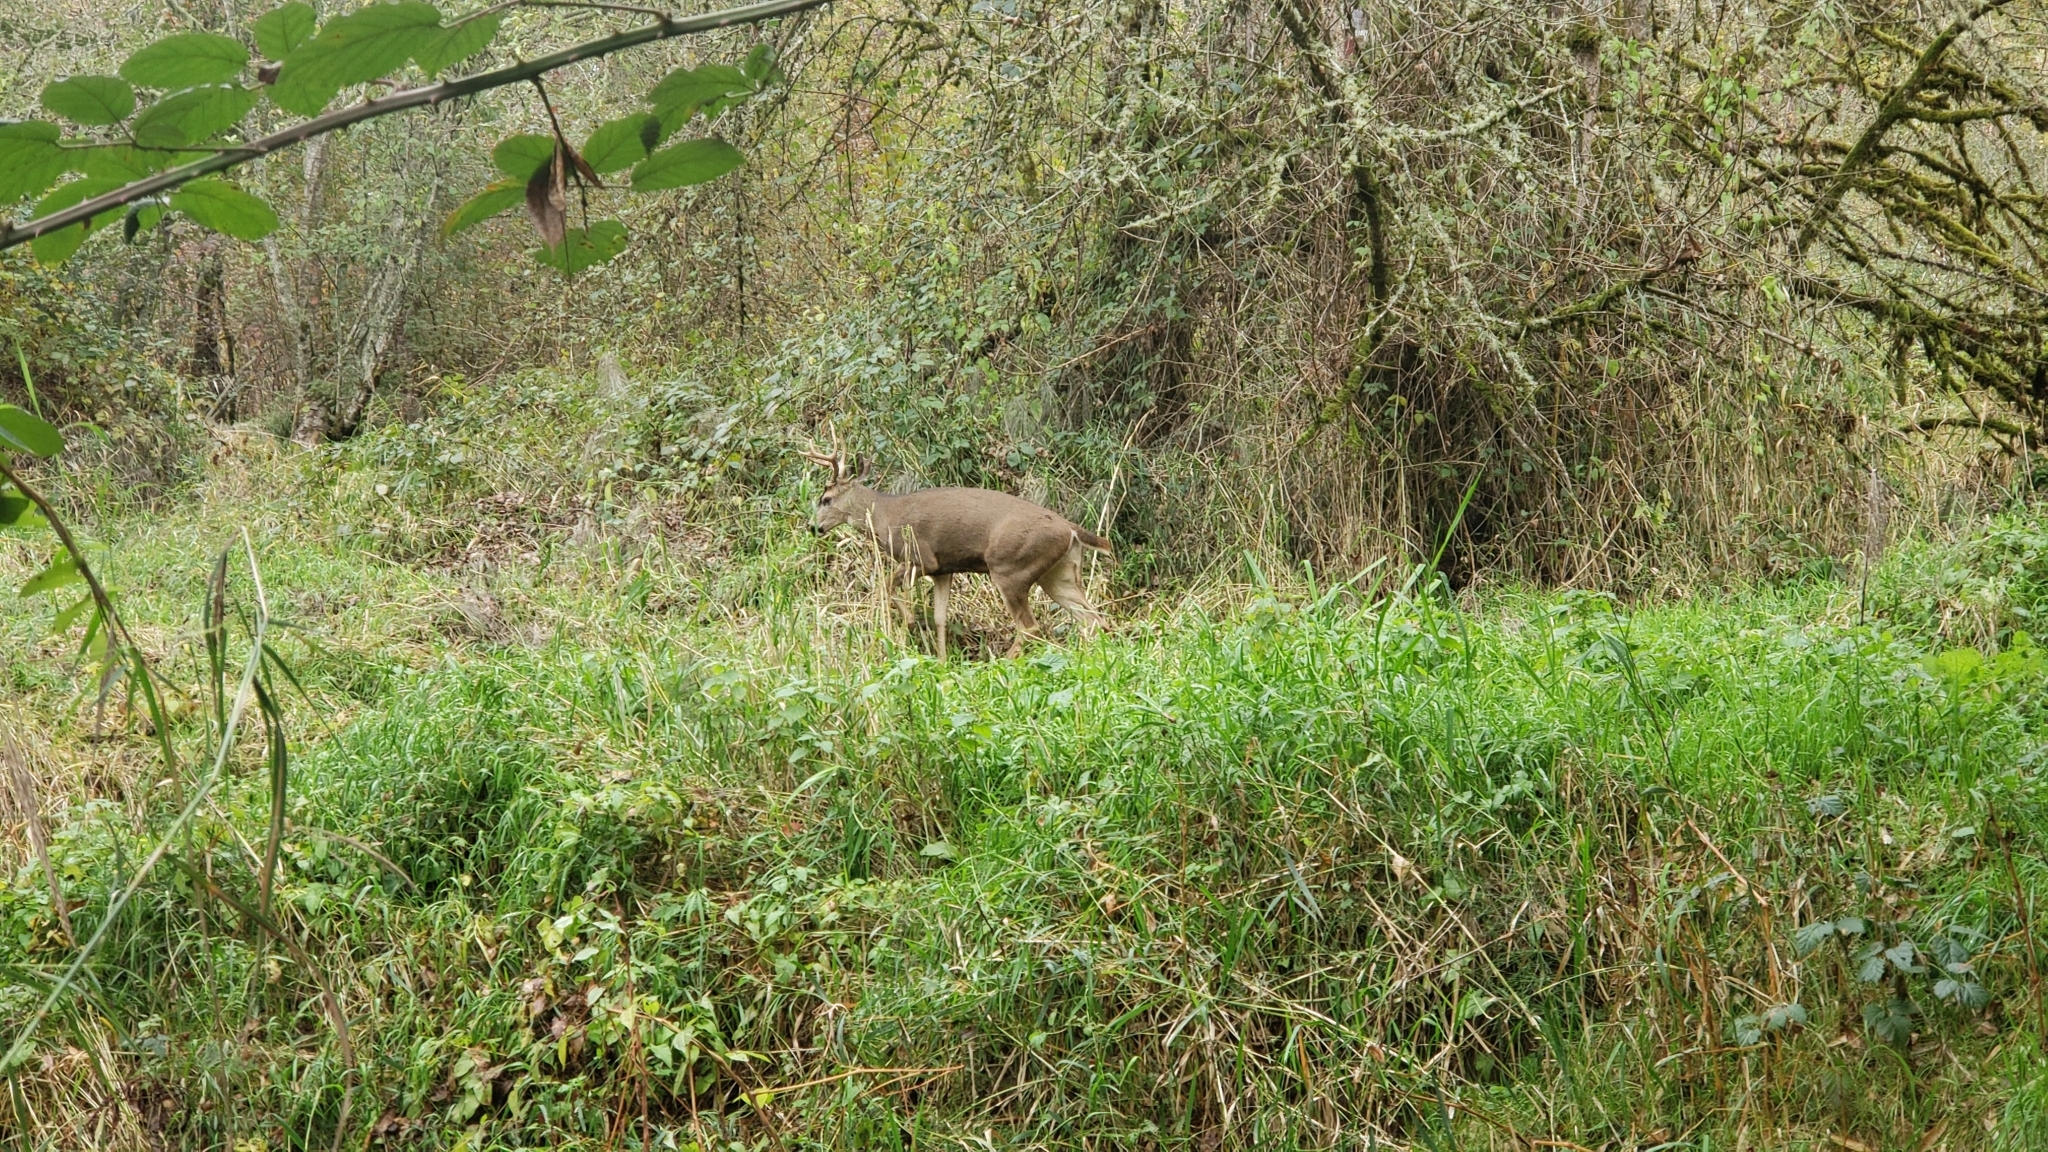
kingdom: Animalia
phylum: Chordata
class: Mammalia
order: Artiodactyla
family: Cervidae
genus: Odocoileus
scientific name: Odocoileus hemionus
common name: Mule deer
